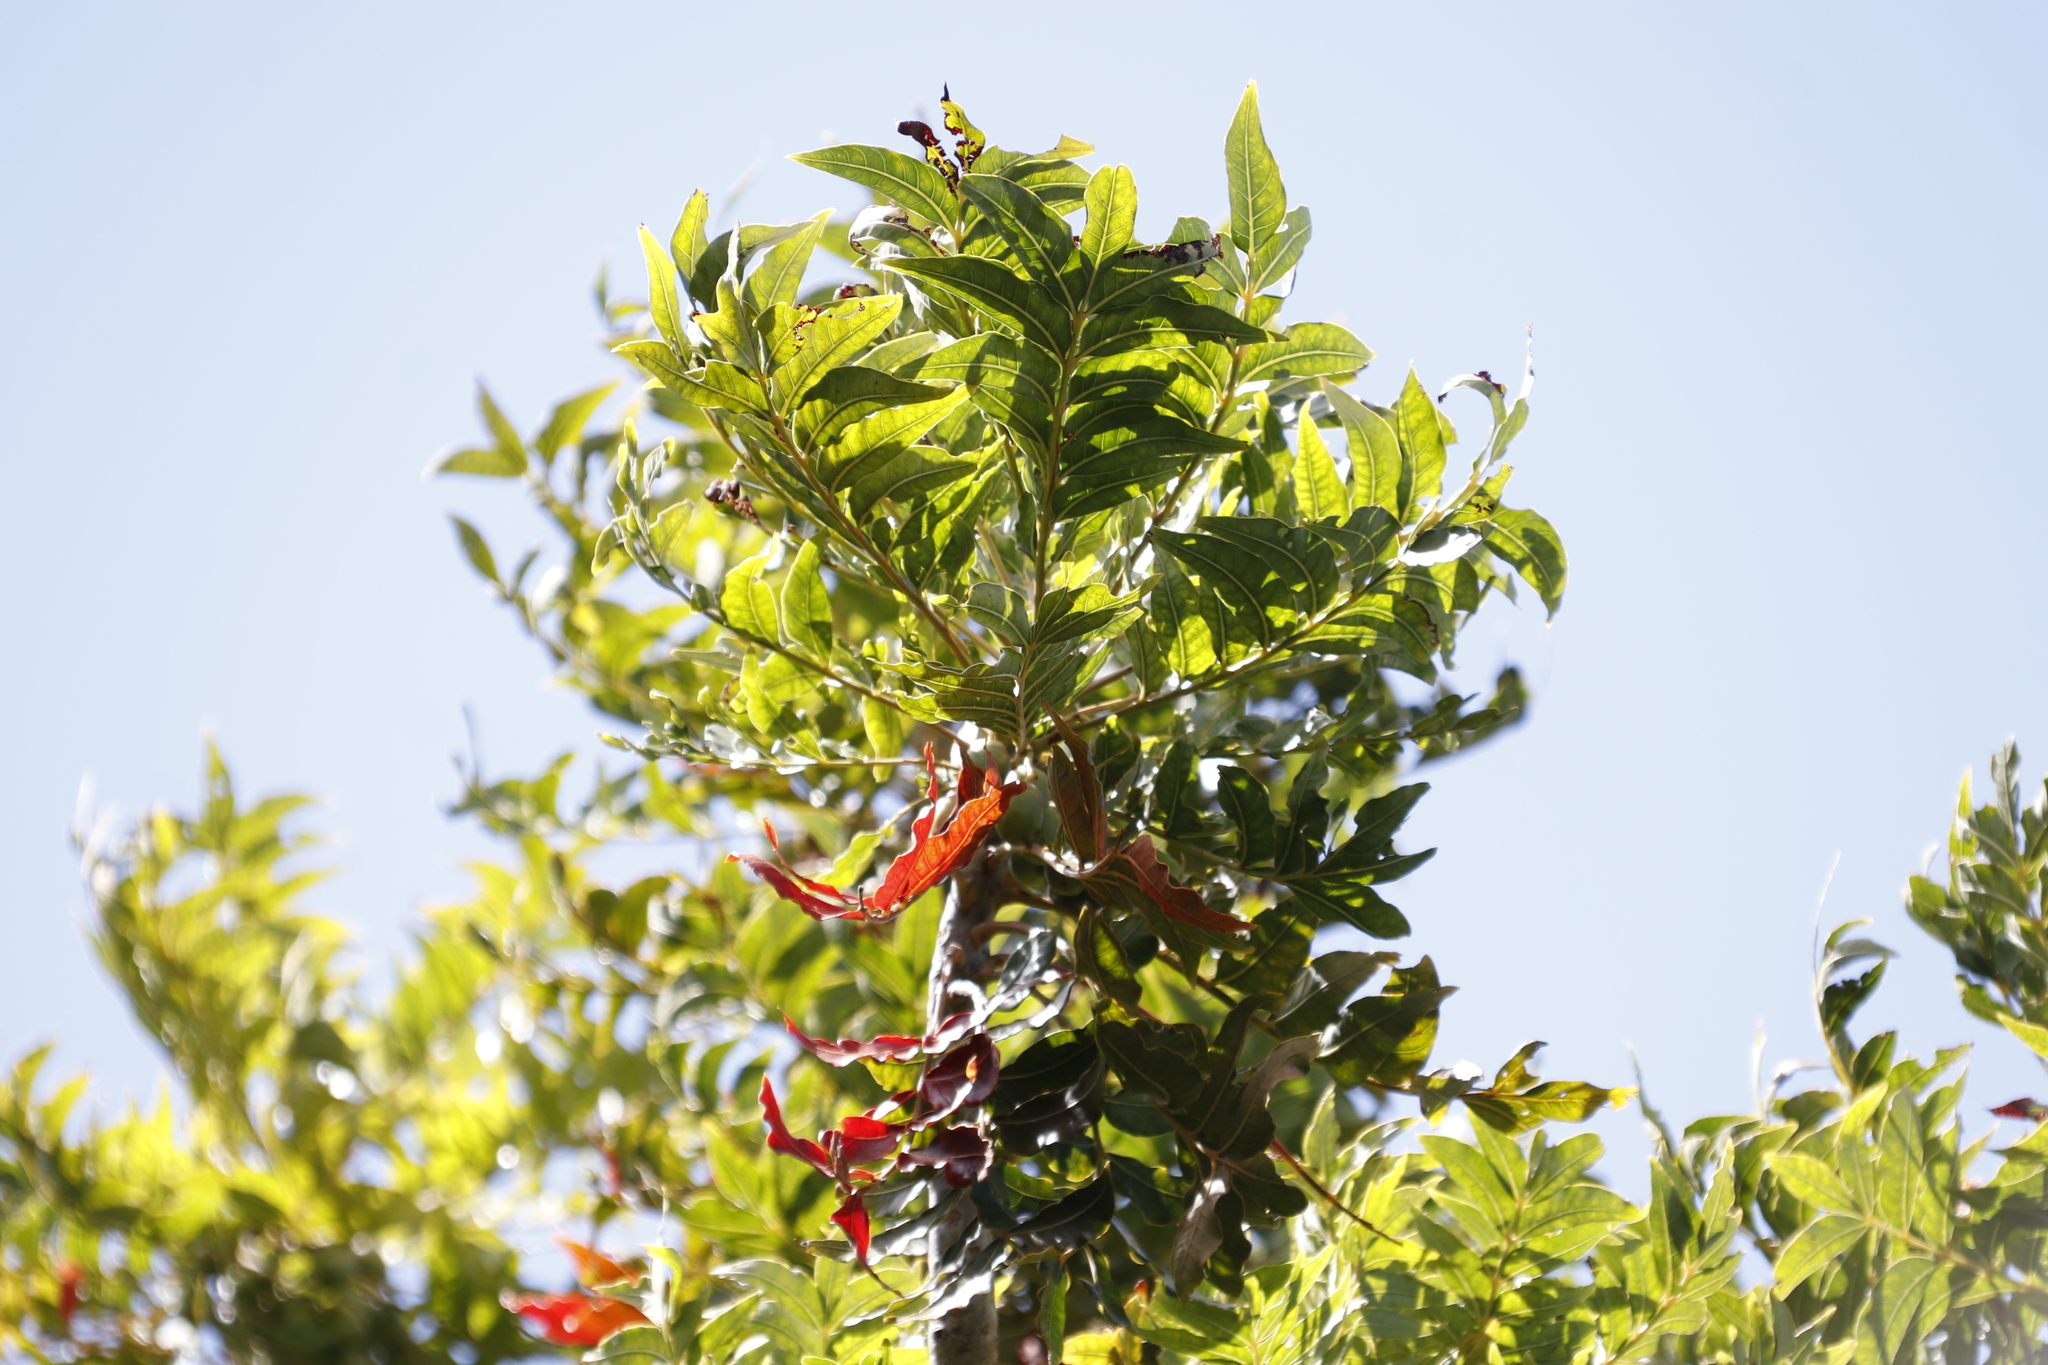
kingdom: Plantae
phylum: Tracheophyta
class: Magnoliopsida
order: Sapindales
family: Anacardiaceae
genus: Harpephyllum
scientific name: Harpephyllum caffrum
